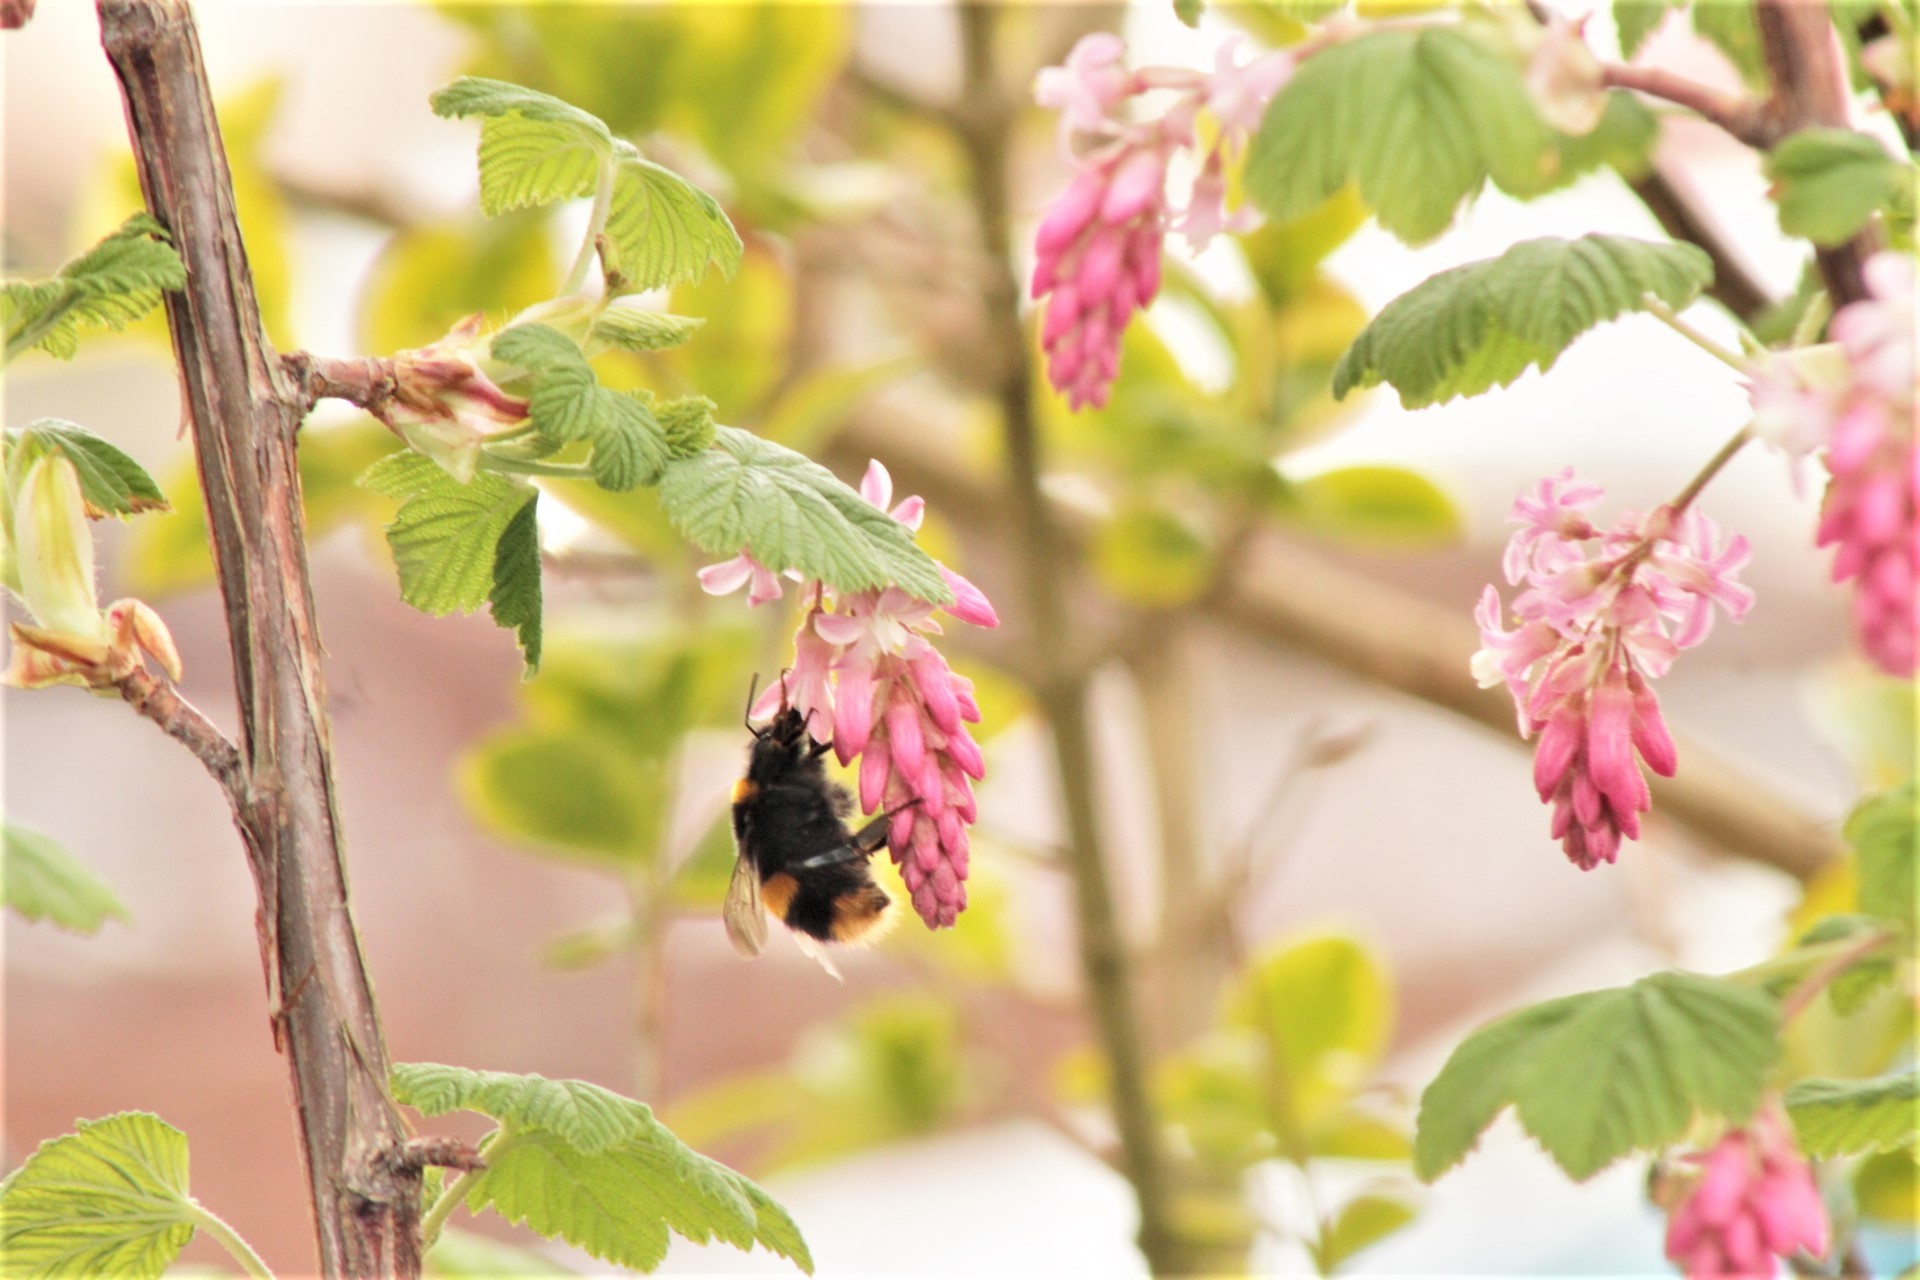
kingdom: Animalia
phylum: Arthropoda
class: Insecta
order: Hymenoptera
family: Apidae
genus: Bombus
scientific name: Bombus terrestris
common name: Buff-tailed bumblebee
